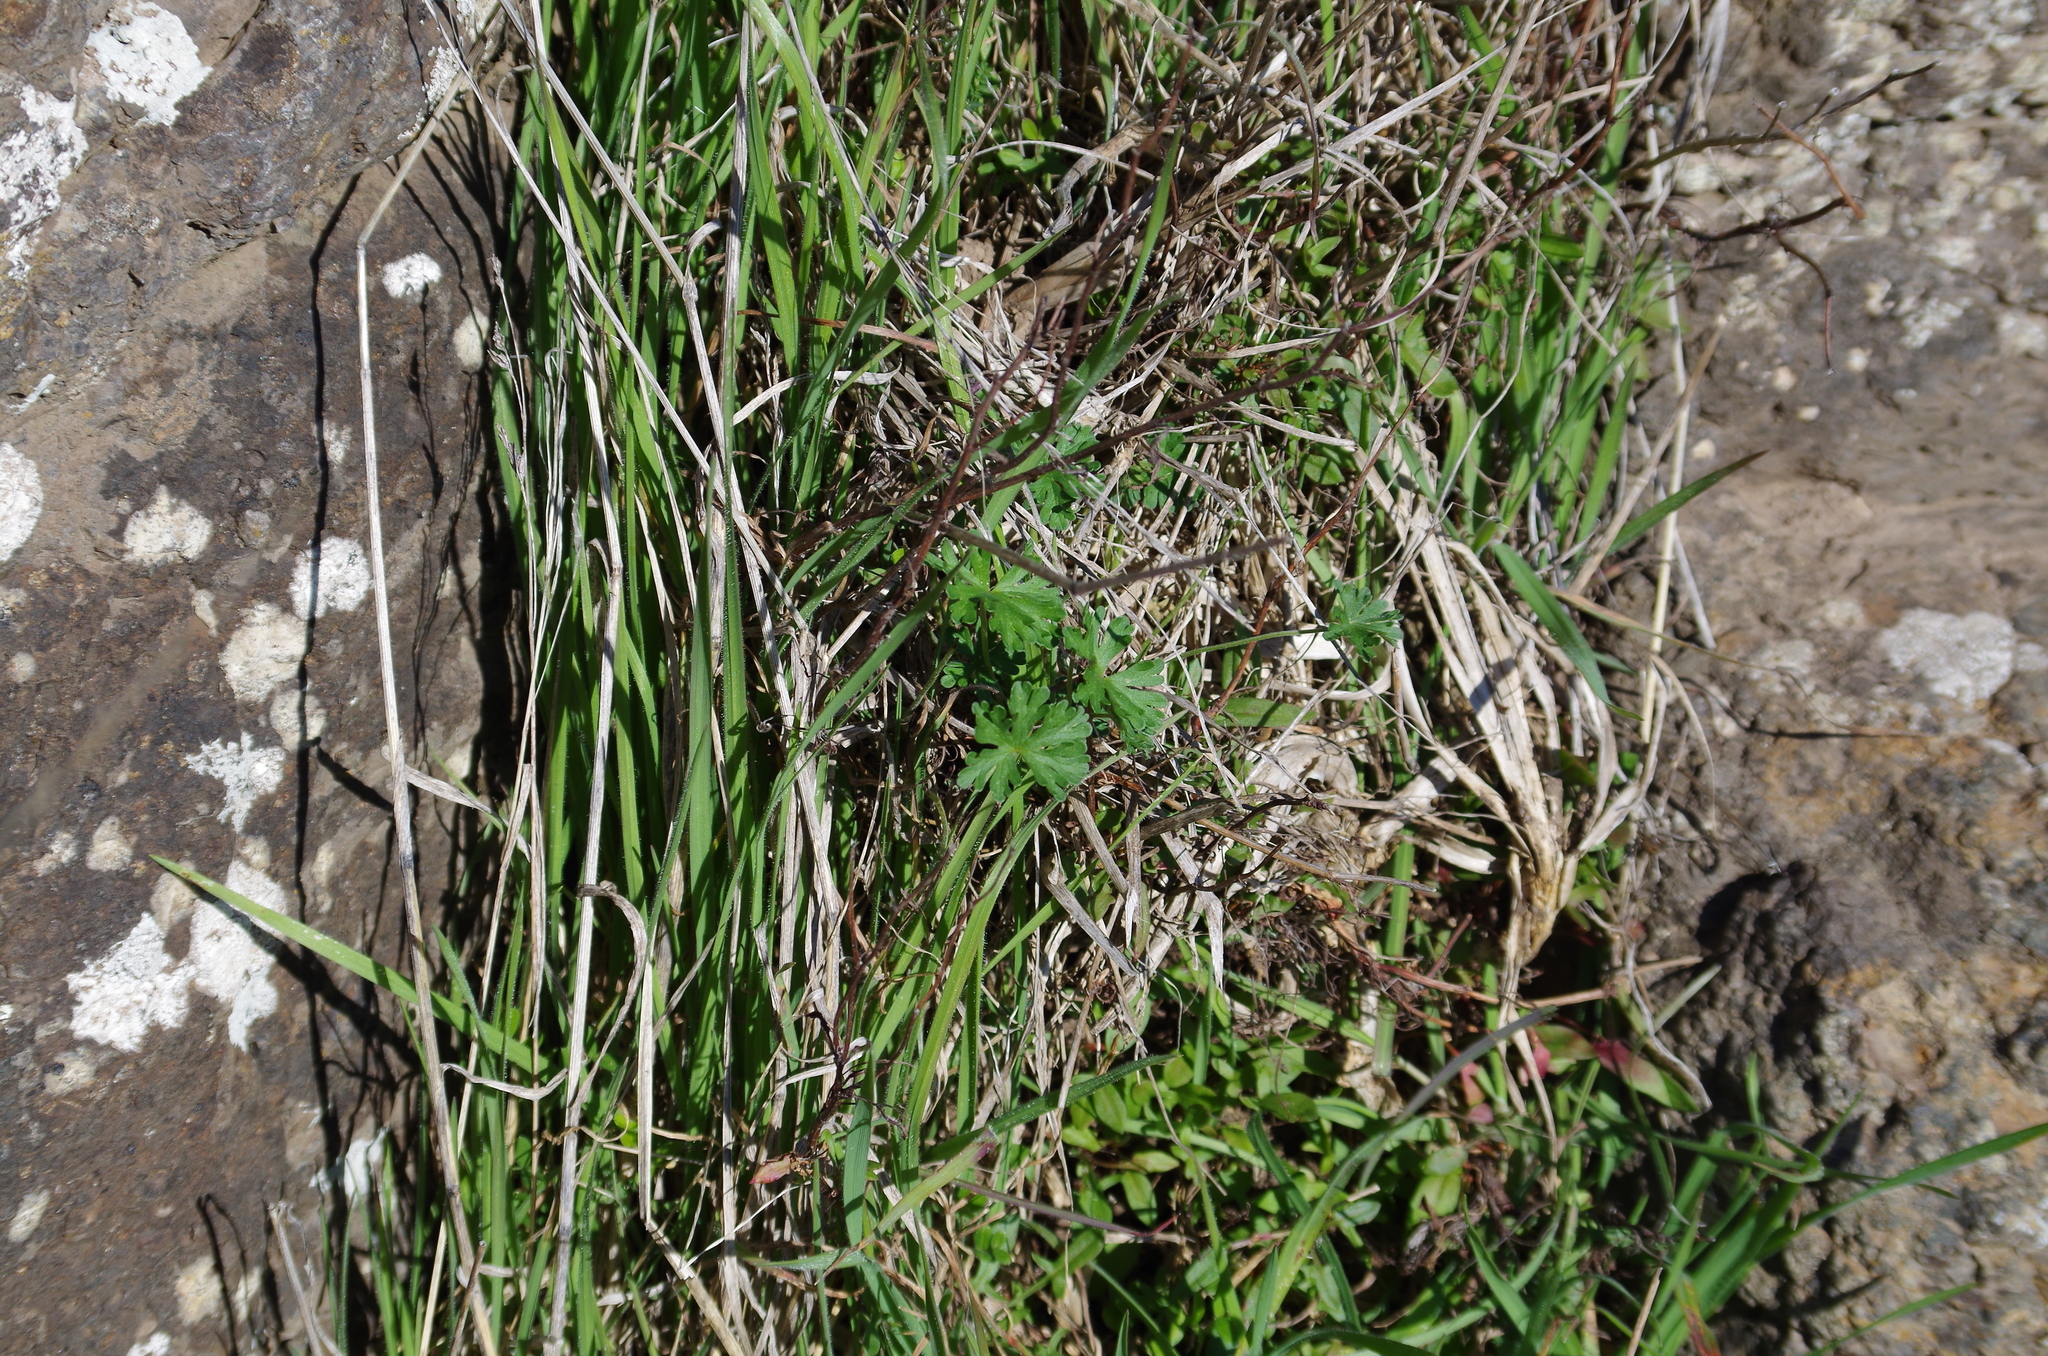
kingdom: Plantae
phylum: Tracheophyta
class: Magnoliopsida
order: Geraniales
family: Geraniaceae
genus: Geranium
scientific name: Geranium retrorsum
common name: New zealand geranium
